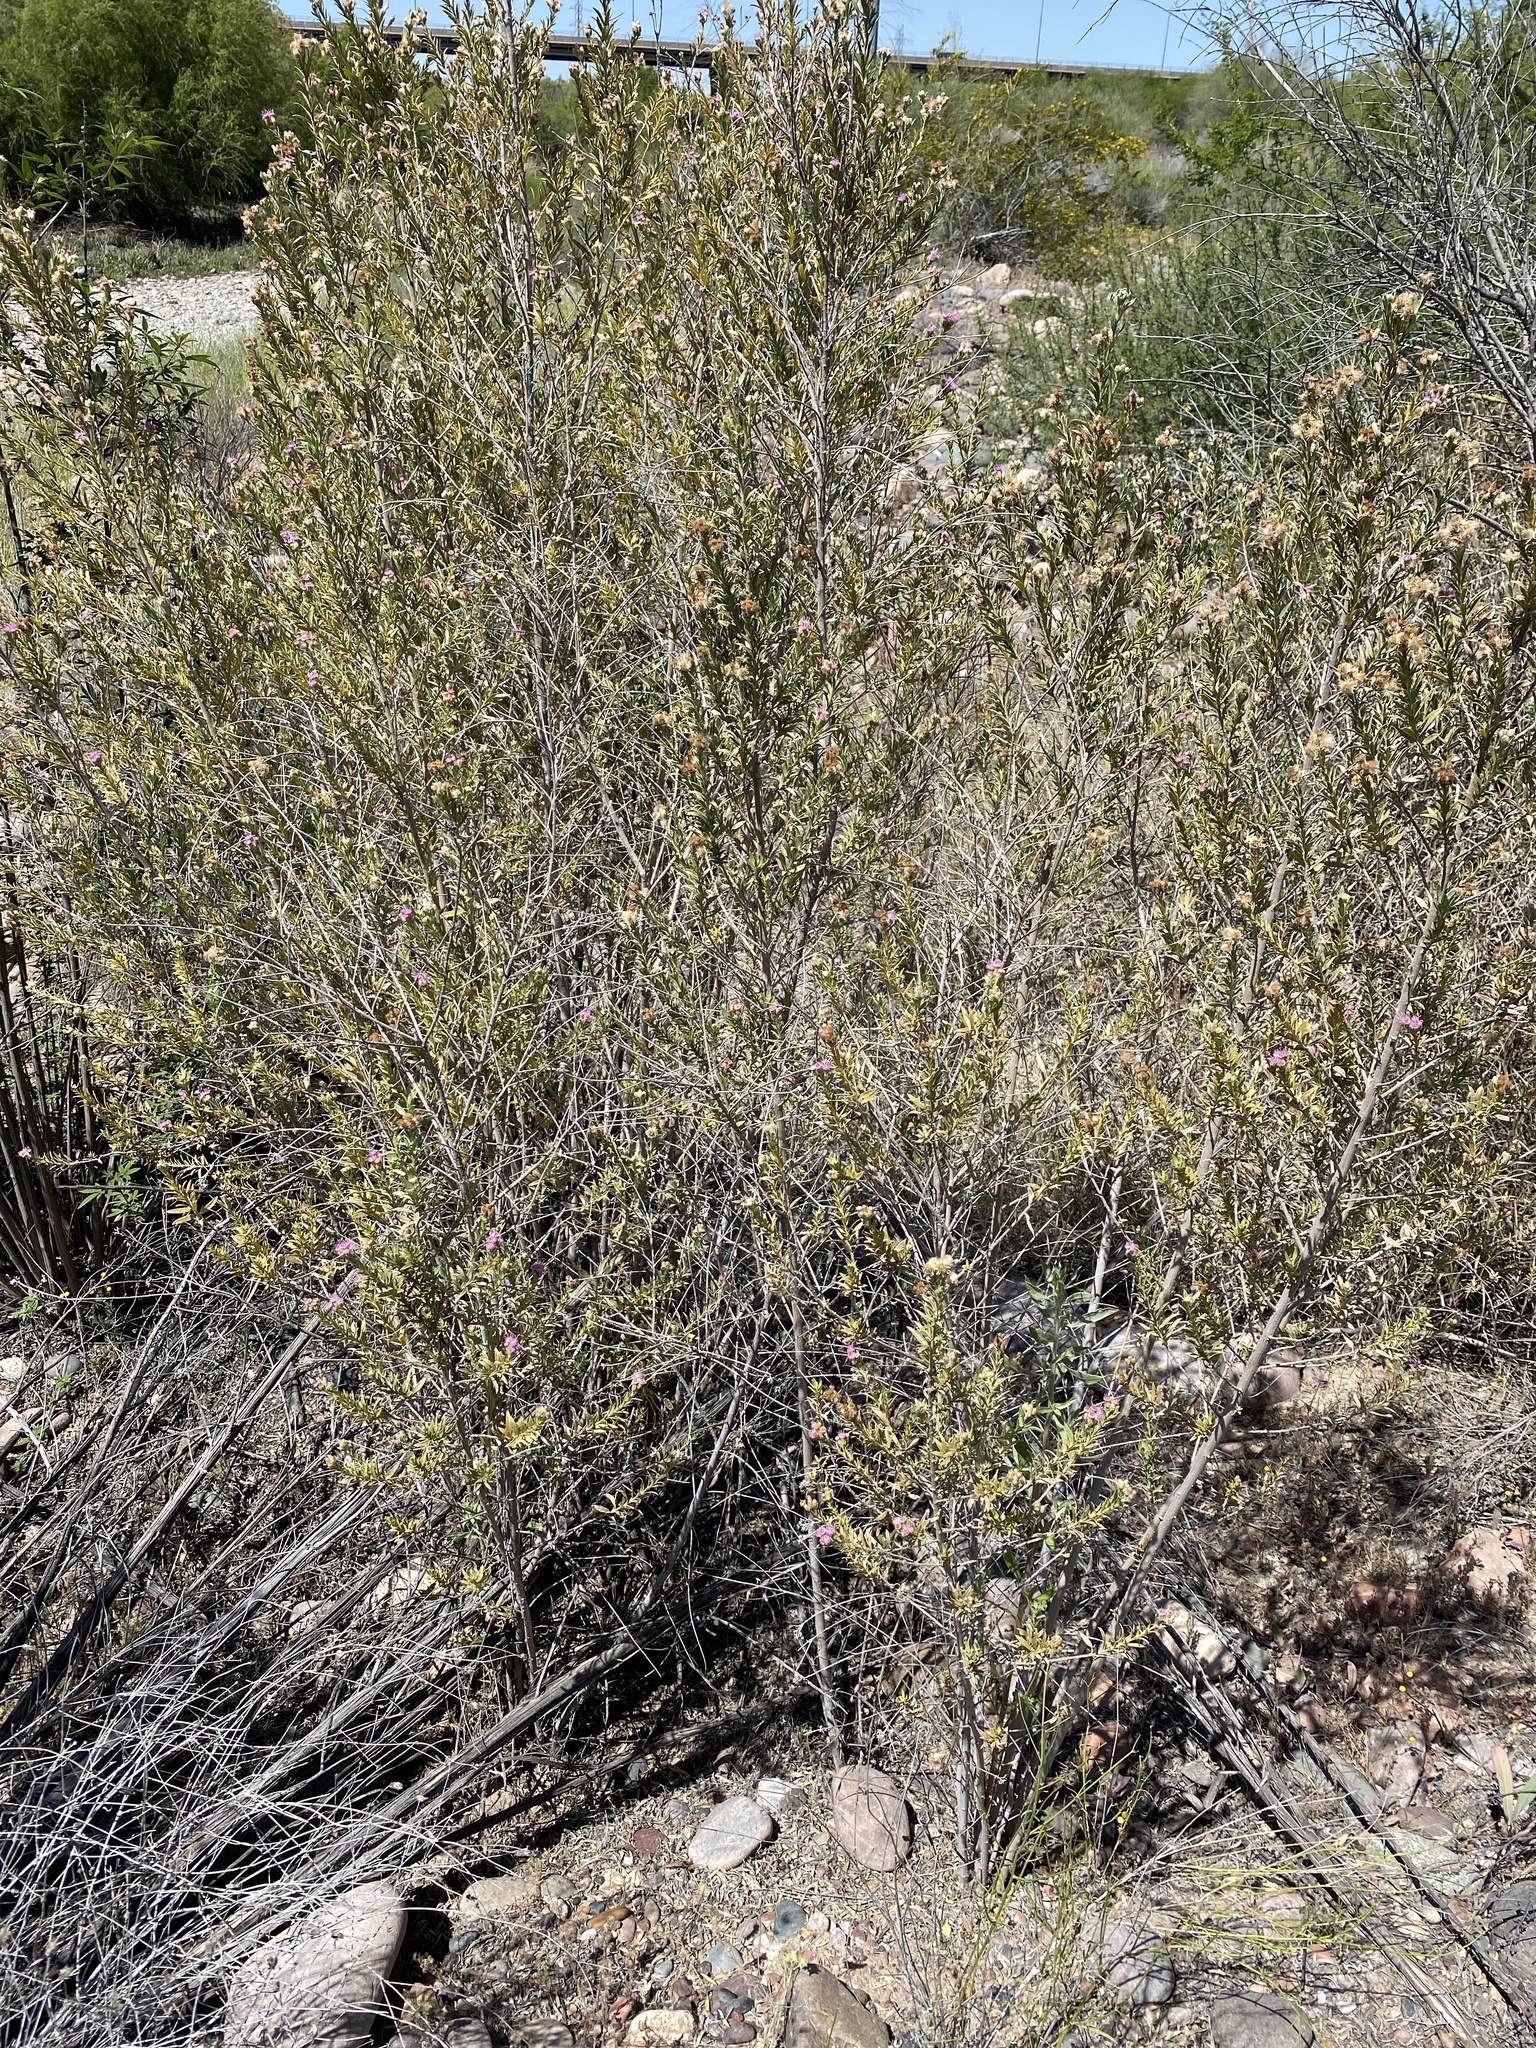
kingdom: Plantae
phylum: Tracheophyta
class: Magnoliopsida
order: Asterales
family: Asteraceae
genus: Pluchea
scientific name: Pluchea sericea
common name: Arrow-weed
